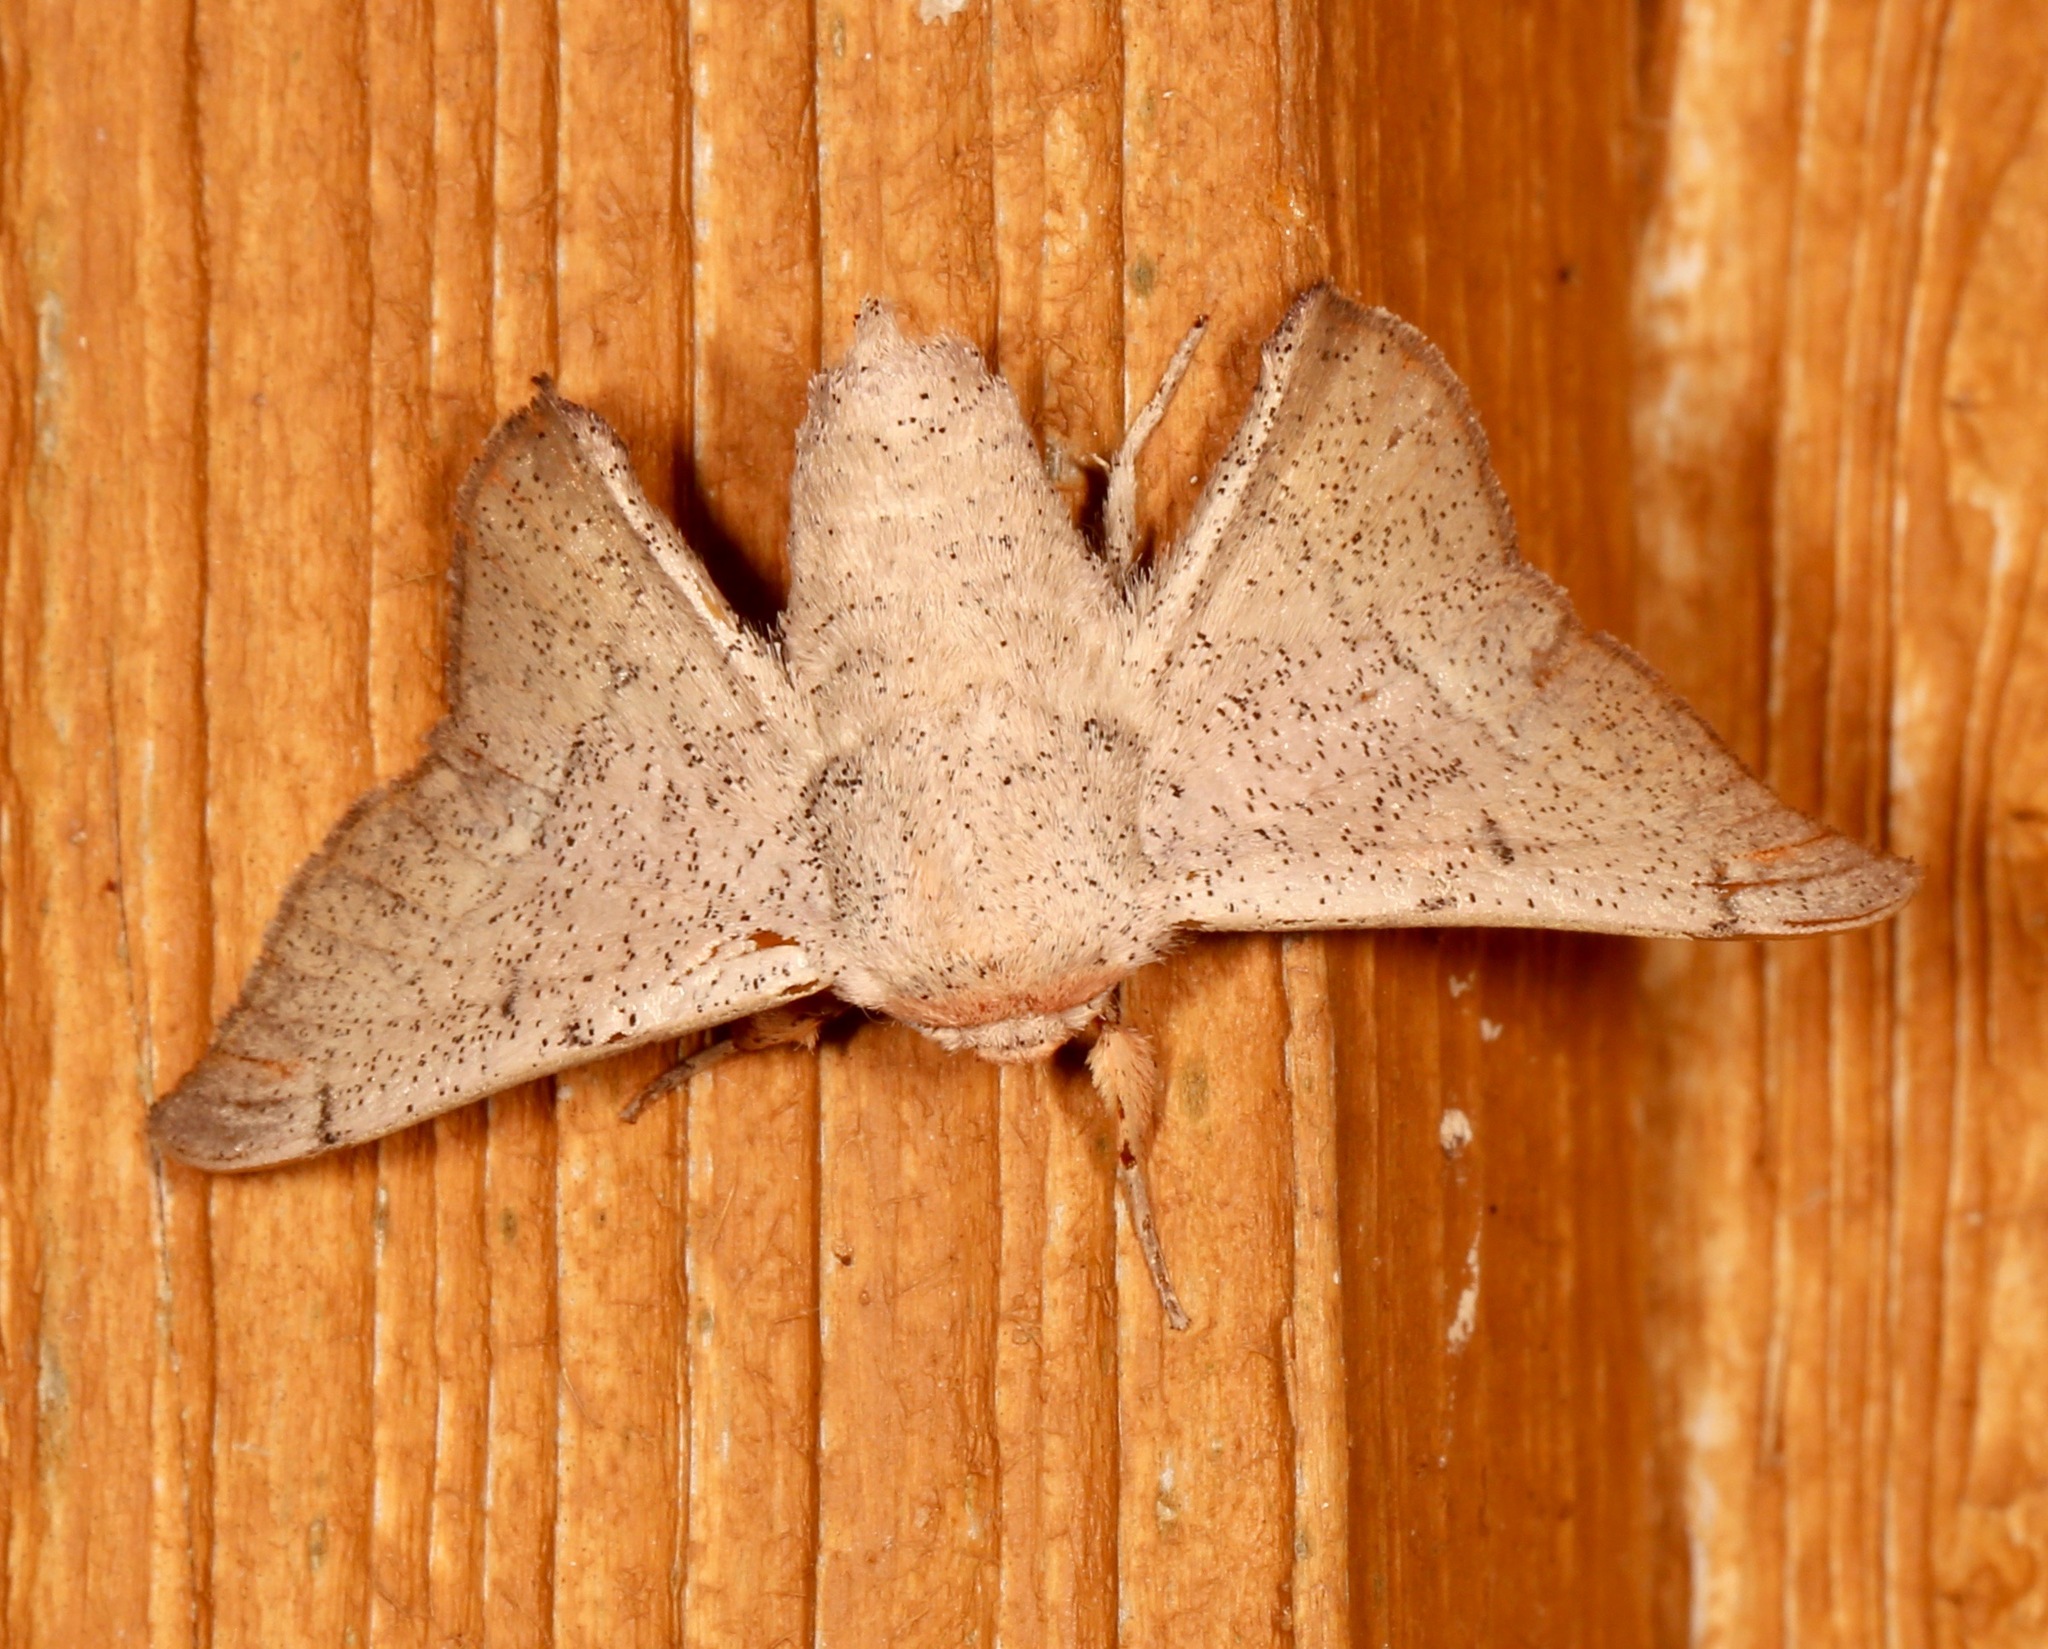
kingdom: Animalia
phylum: Arthropoda
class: Insecta
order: Lepidoptera
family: Mimallonidae
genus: Cicinnus
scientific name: Cicinnus melsheimeri
